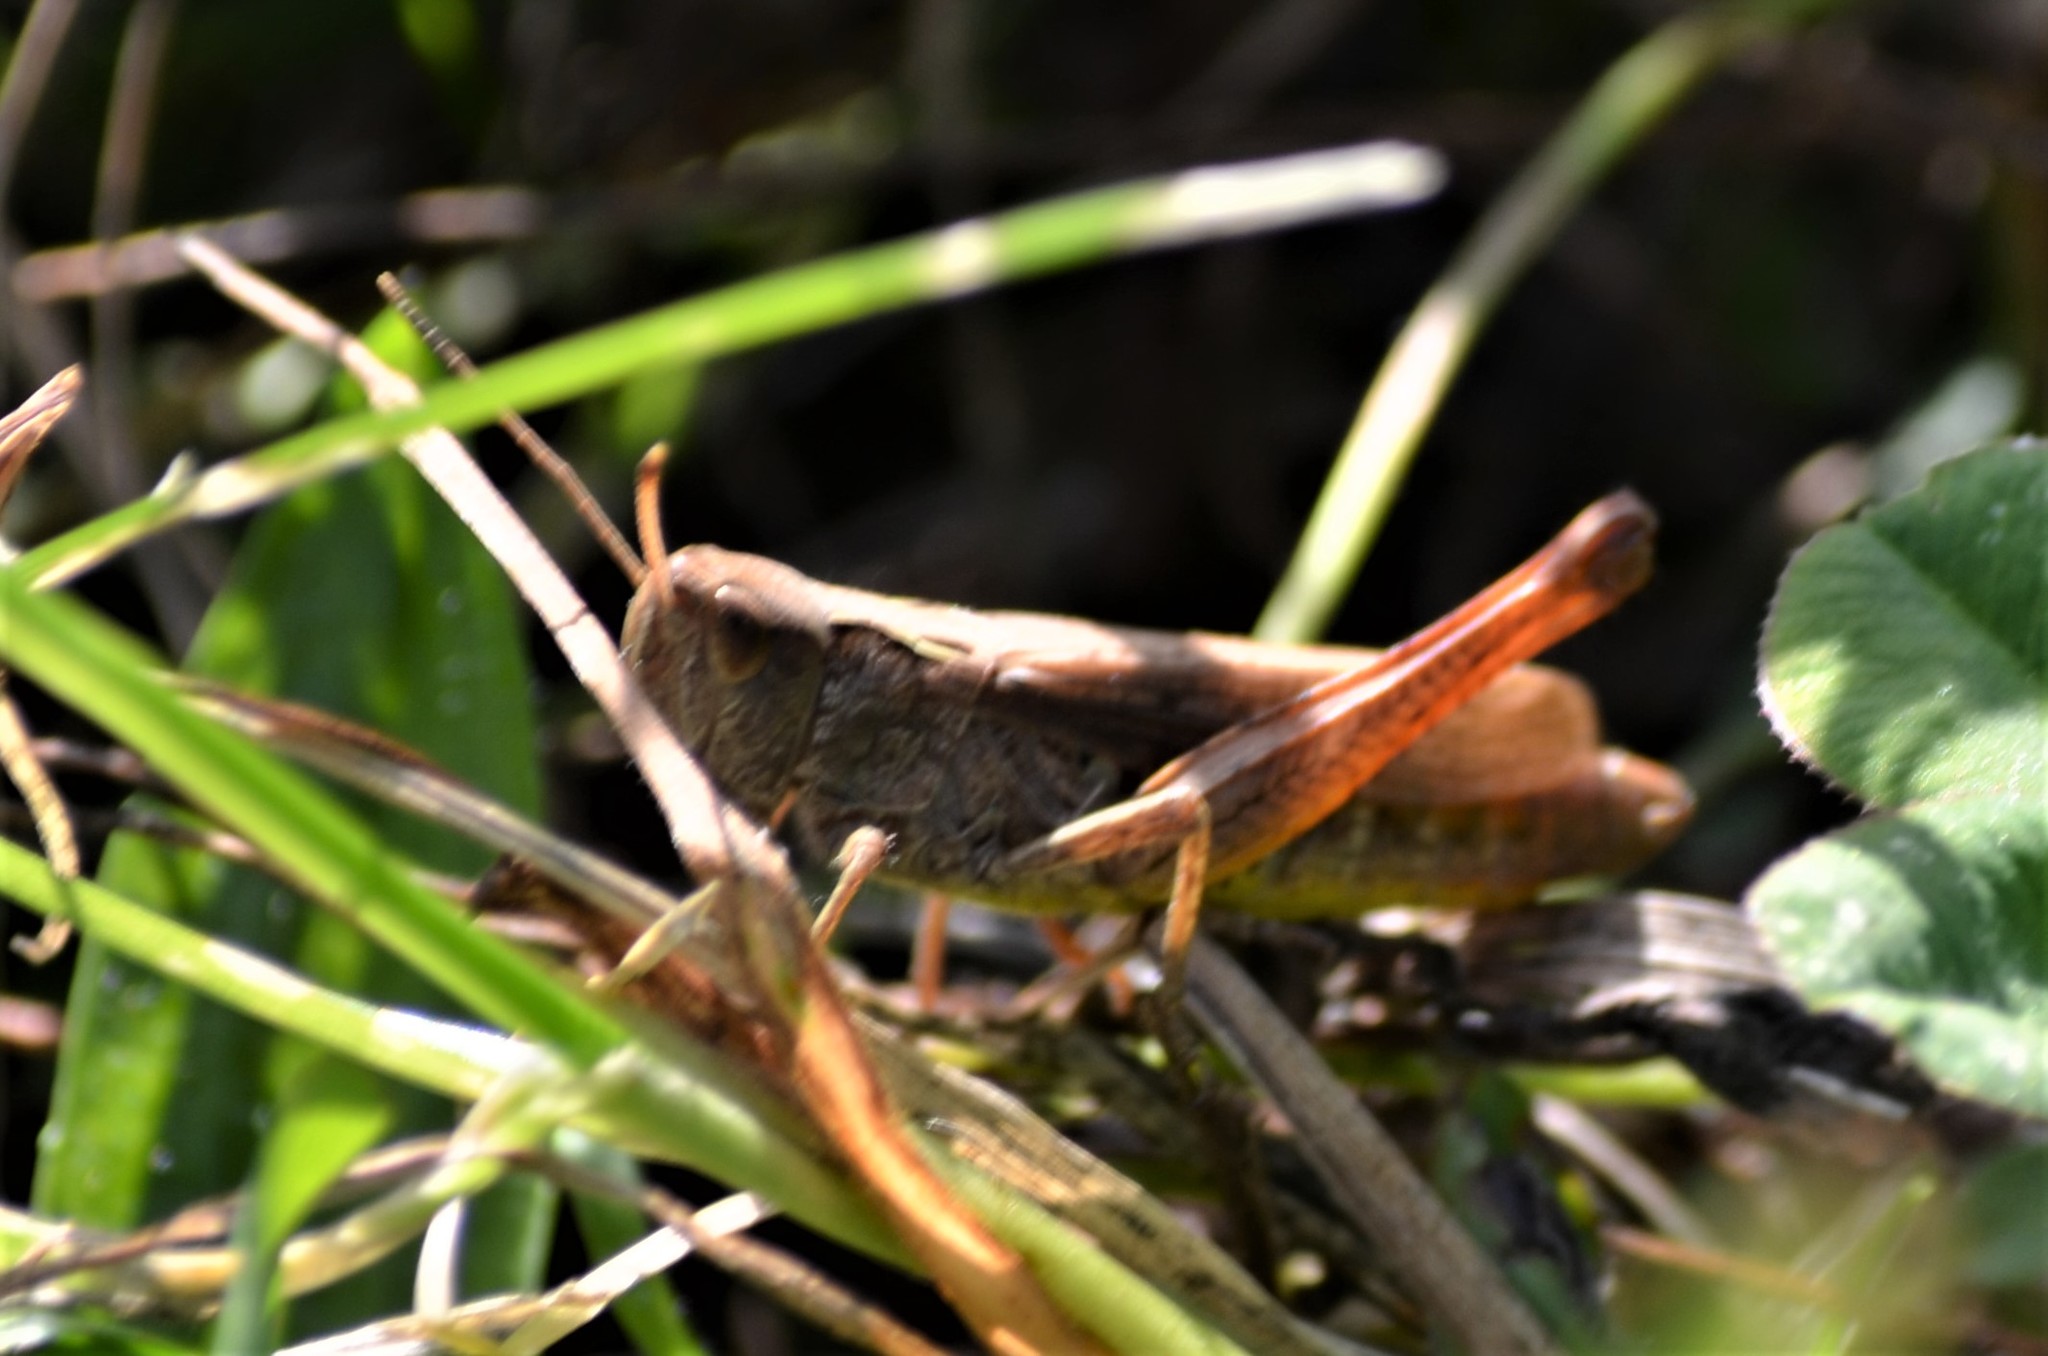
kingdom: Animalia
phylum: Arthropoda
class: Insecta
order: Orthoptera
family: Acrididae
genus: Gomphocerippus
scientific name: Gomphocerippus rufus
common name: Rufous grasshopper
